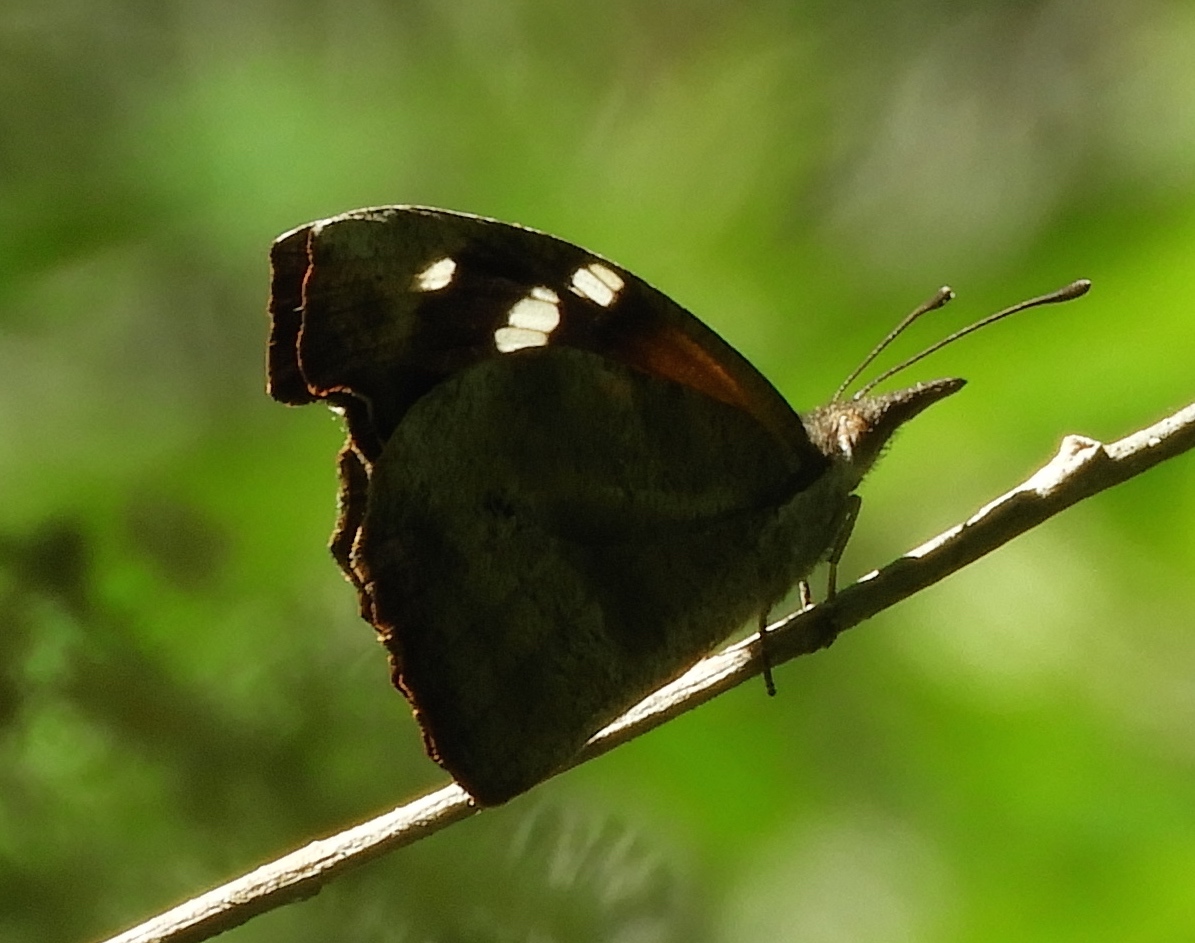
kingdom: Animalia
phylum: Arthropoda
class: Insecta
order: Lepidoptera
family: Nymphalidae
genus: Libytheana
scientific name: Libytheana carinenta
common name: American snout
